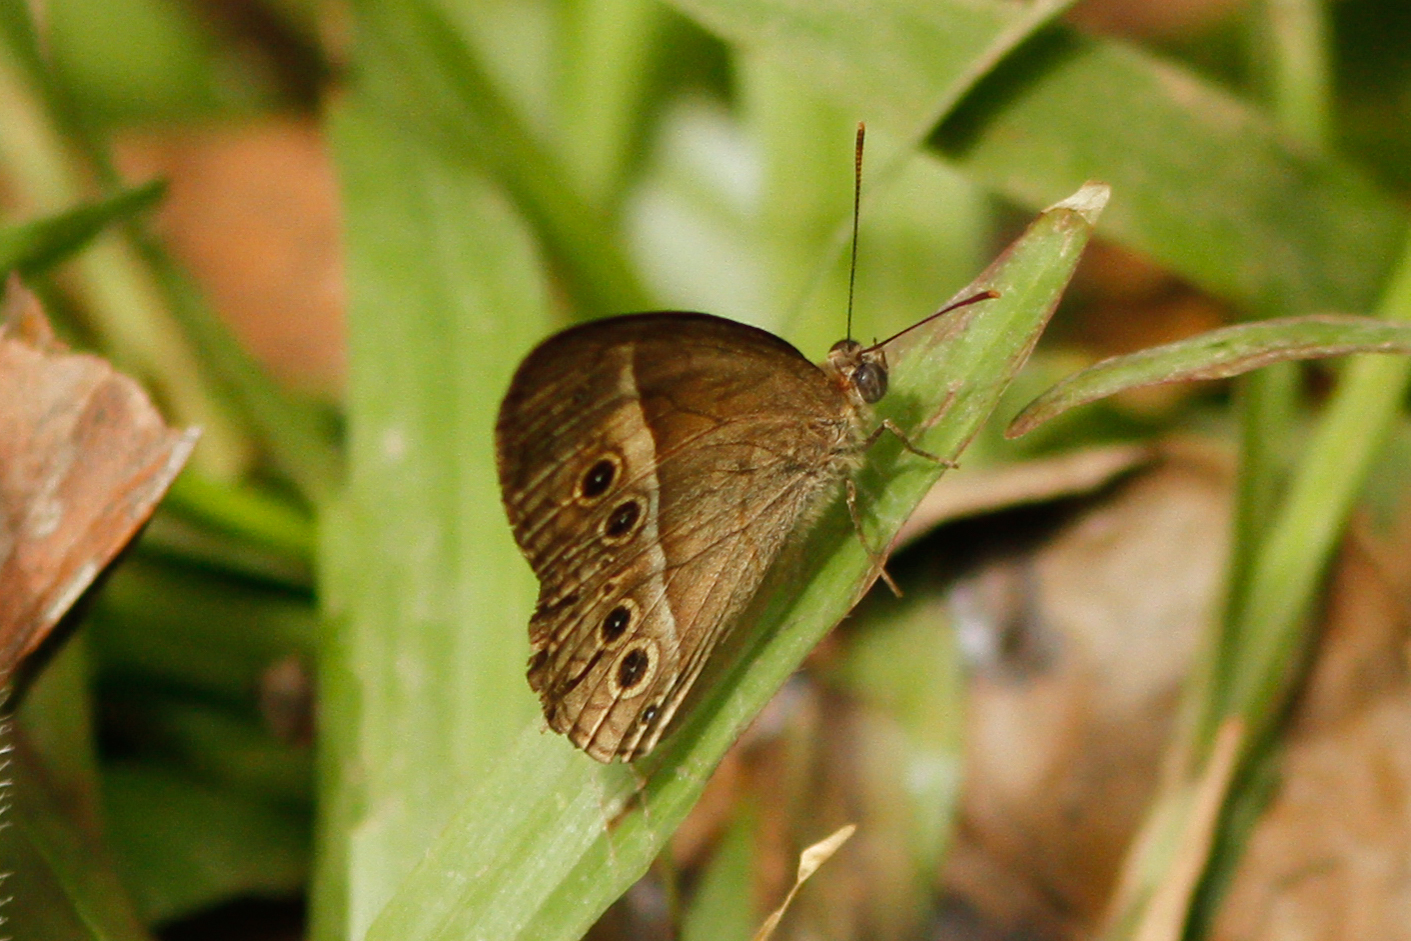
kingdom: Animalia
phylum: Arthropoda
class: Insecta
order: Lepidoptera
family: Nymphalidae
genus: Mycalesis
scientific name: Mycalesis terminus
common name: Orange bushbrown
